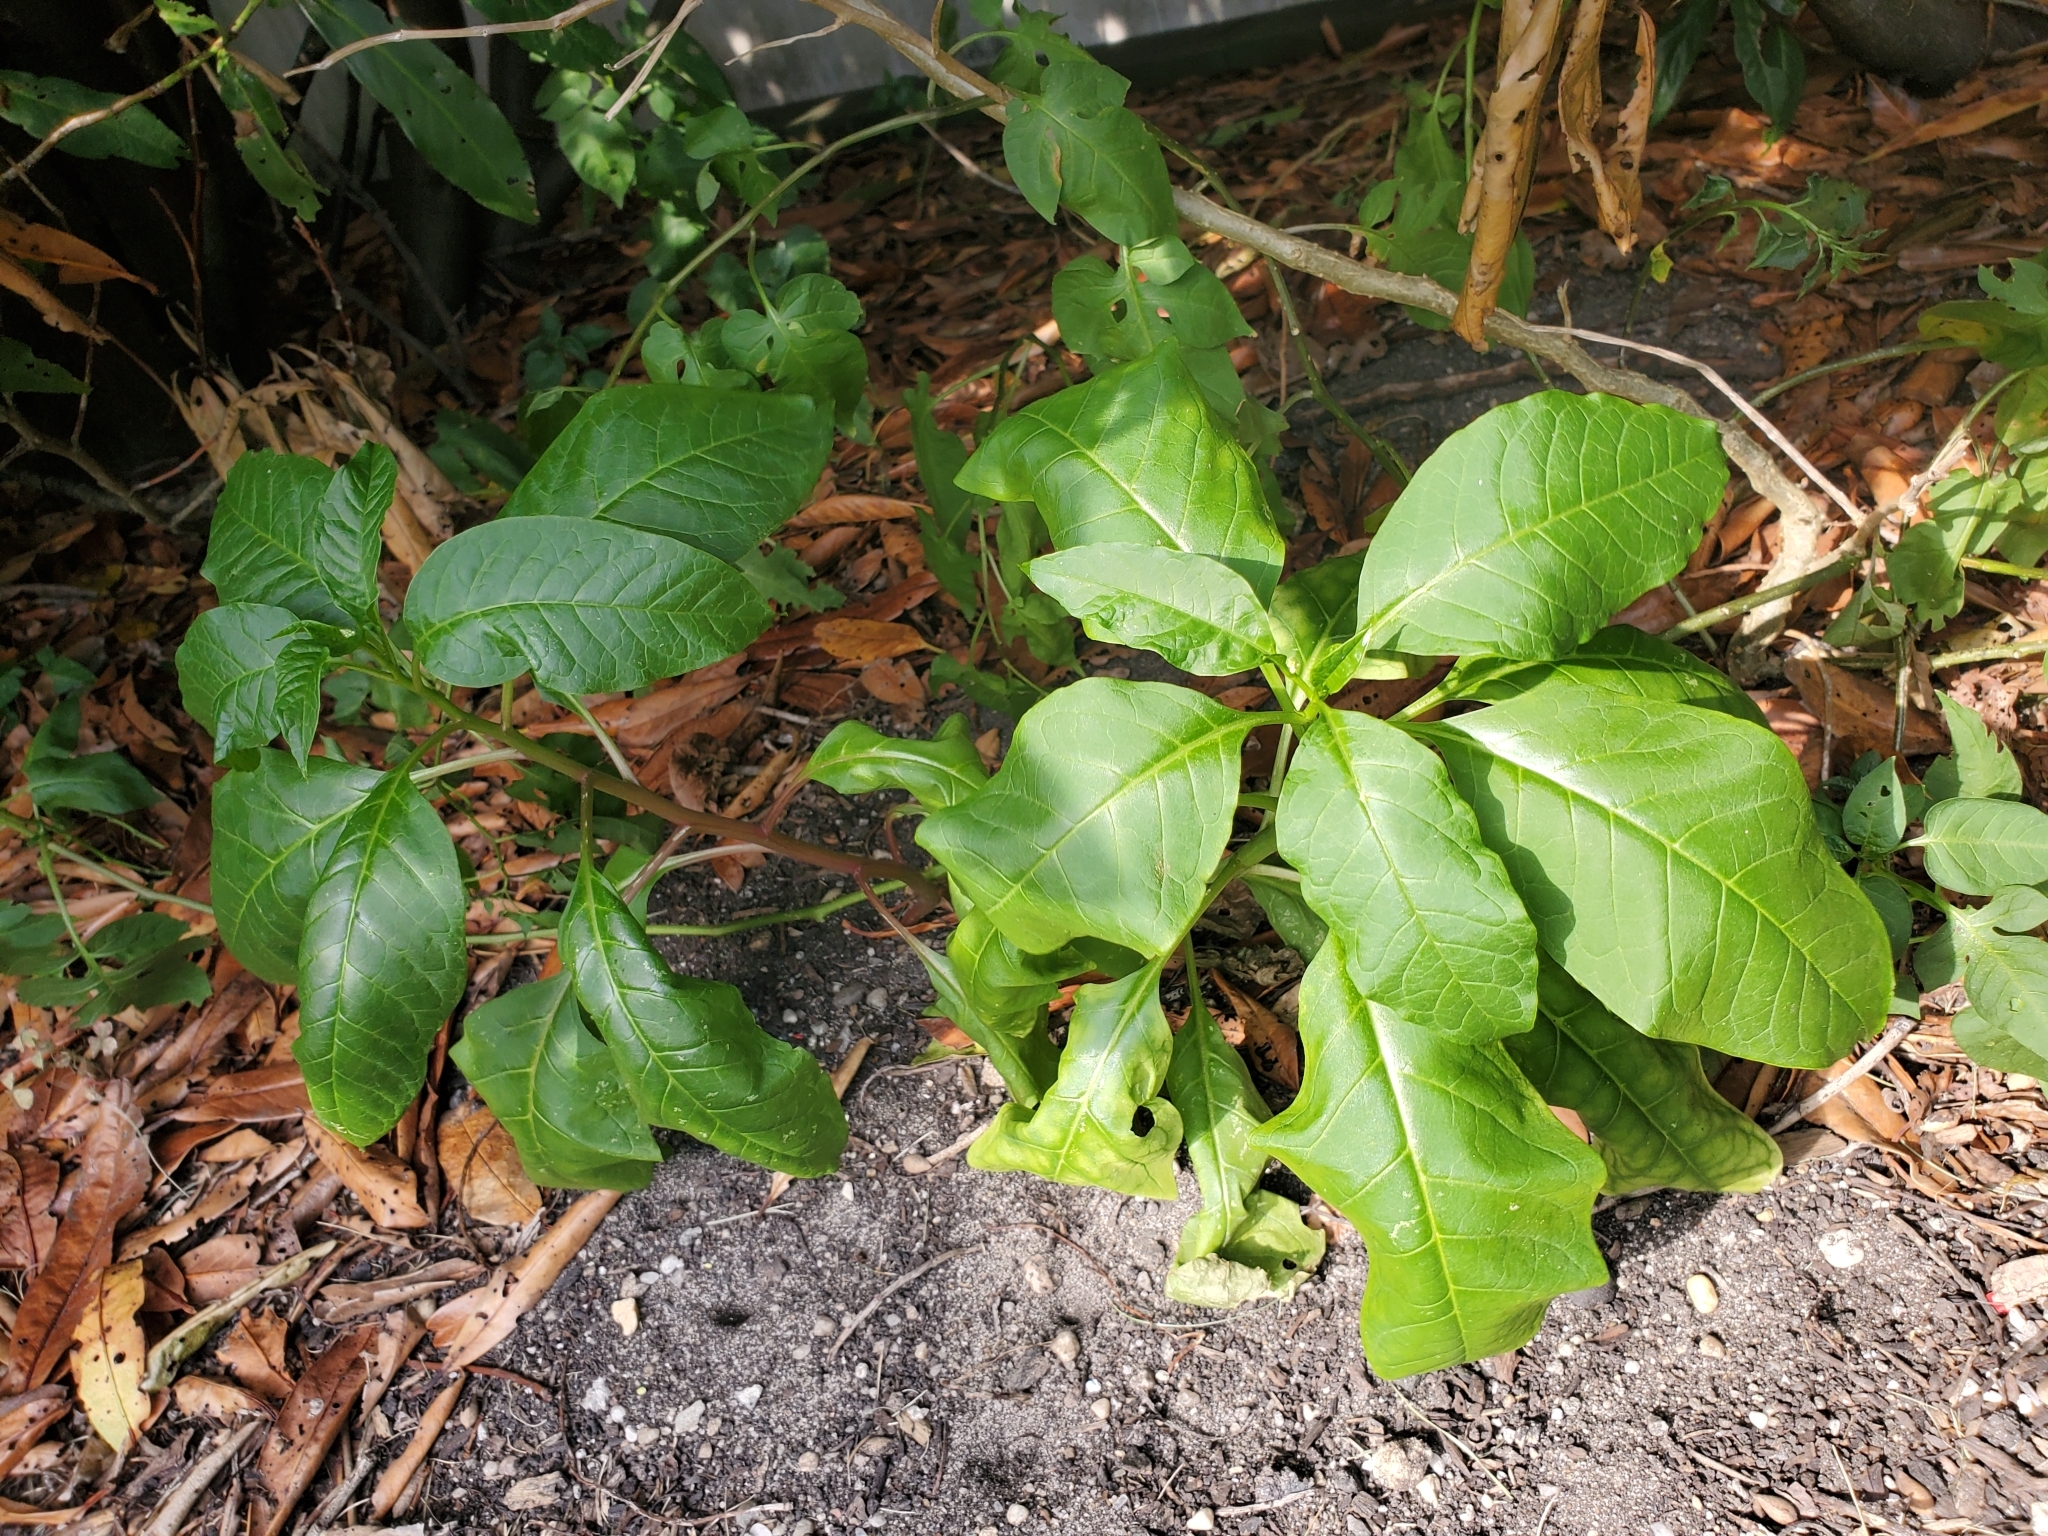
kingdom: Plantae
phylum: Tracheophyta
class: Magnoliopsida
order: Caryophyllales
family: Phytolaccaceae
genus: Phytolacca
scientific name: Phytolacca americana
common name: American pokeweed
